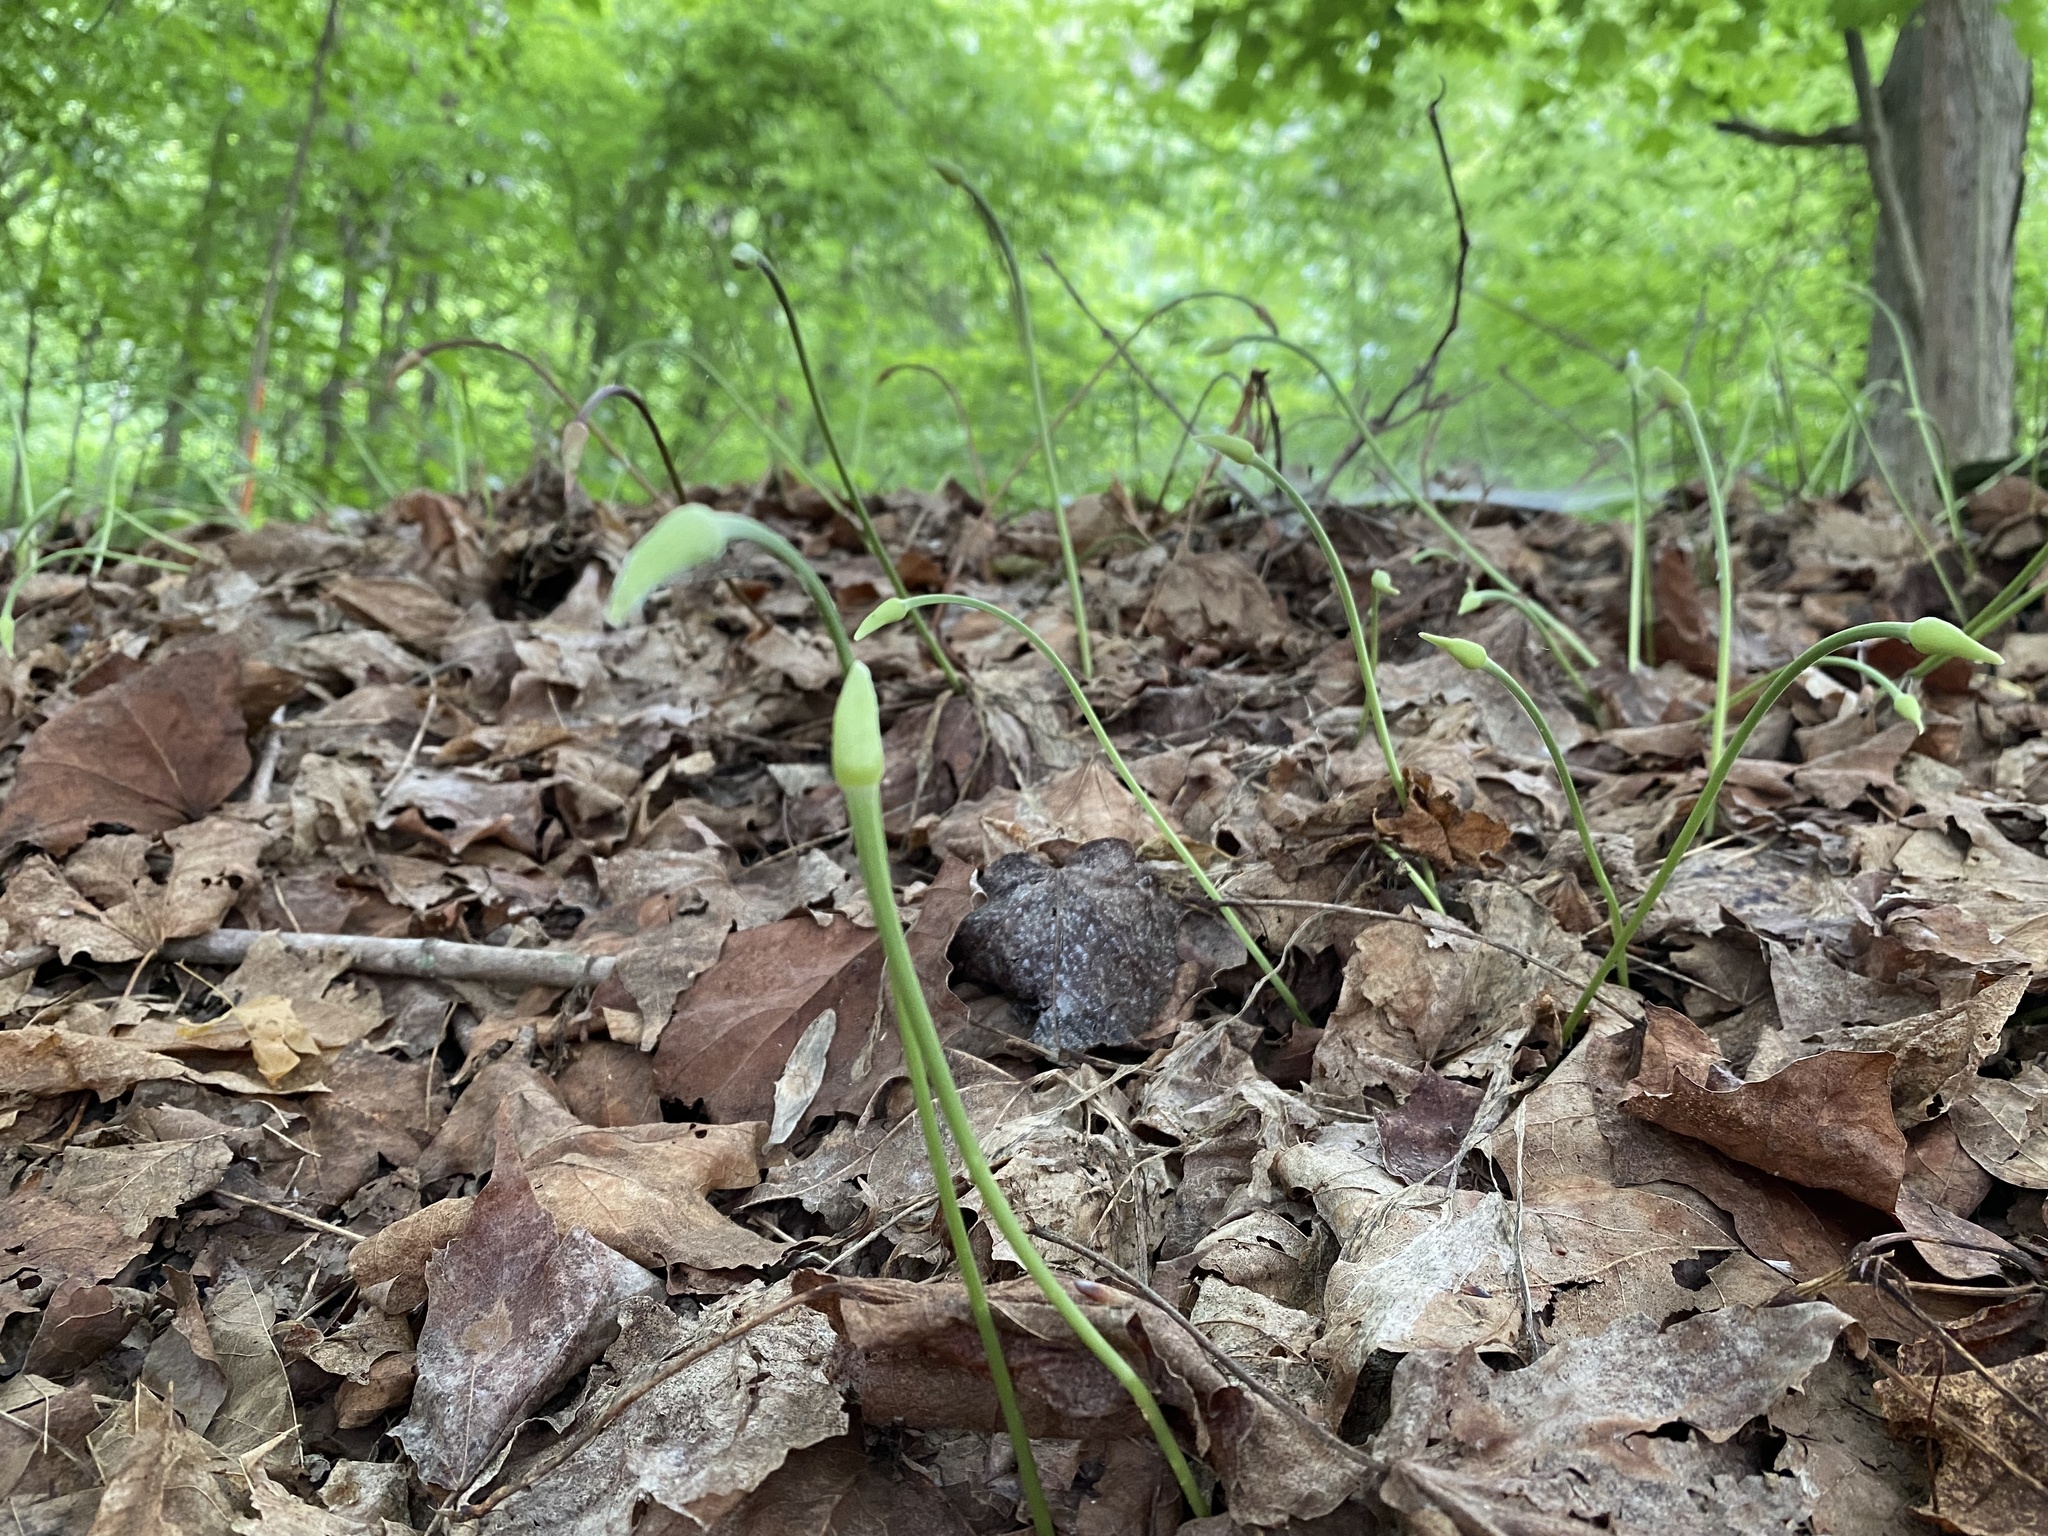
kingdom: Plantae
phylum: Tracheophyta
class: Liliopsida
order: Asparagales
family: Amaryllidaceae
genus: Allium
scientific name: Allium tricoccum
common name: Ramp
